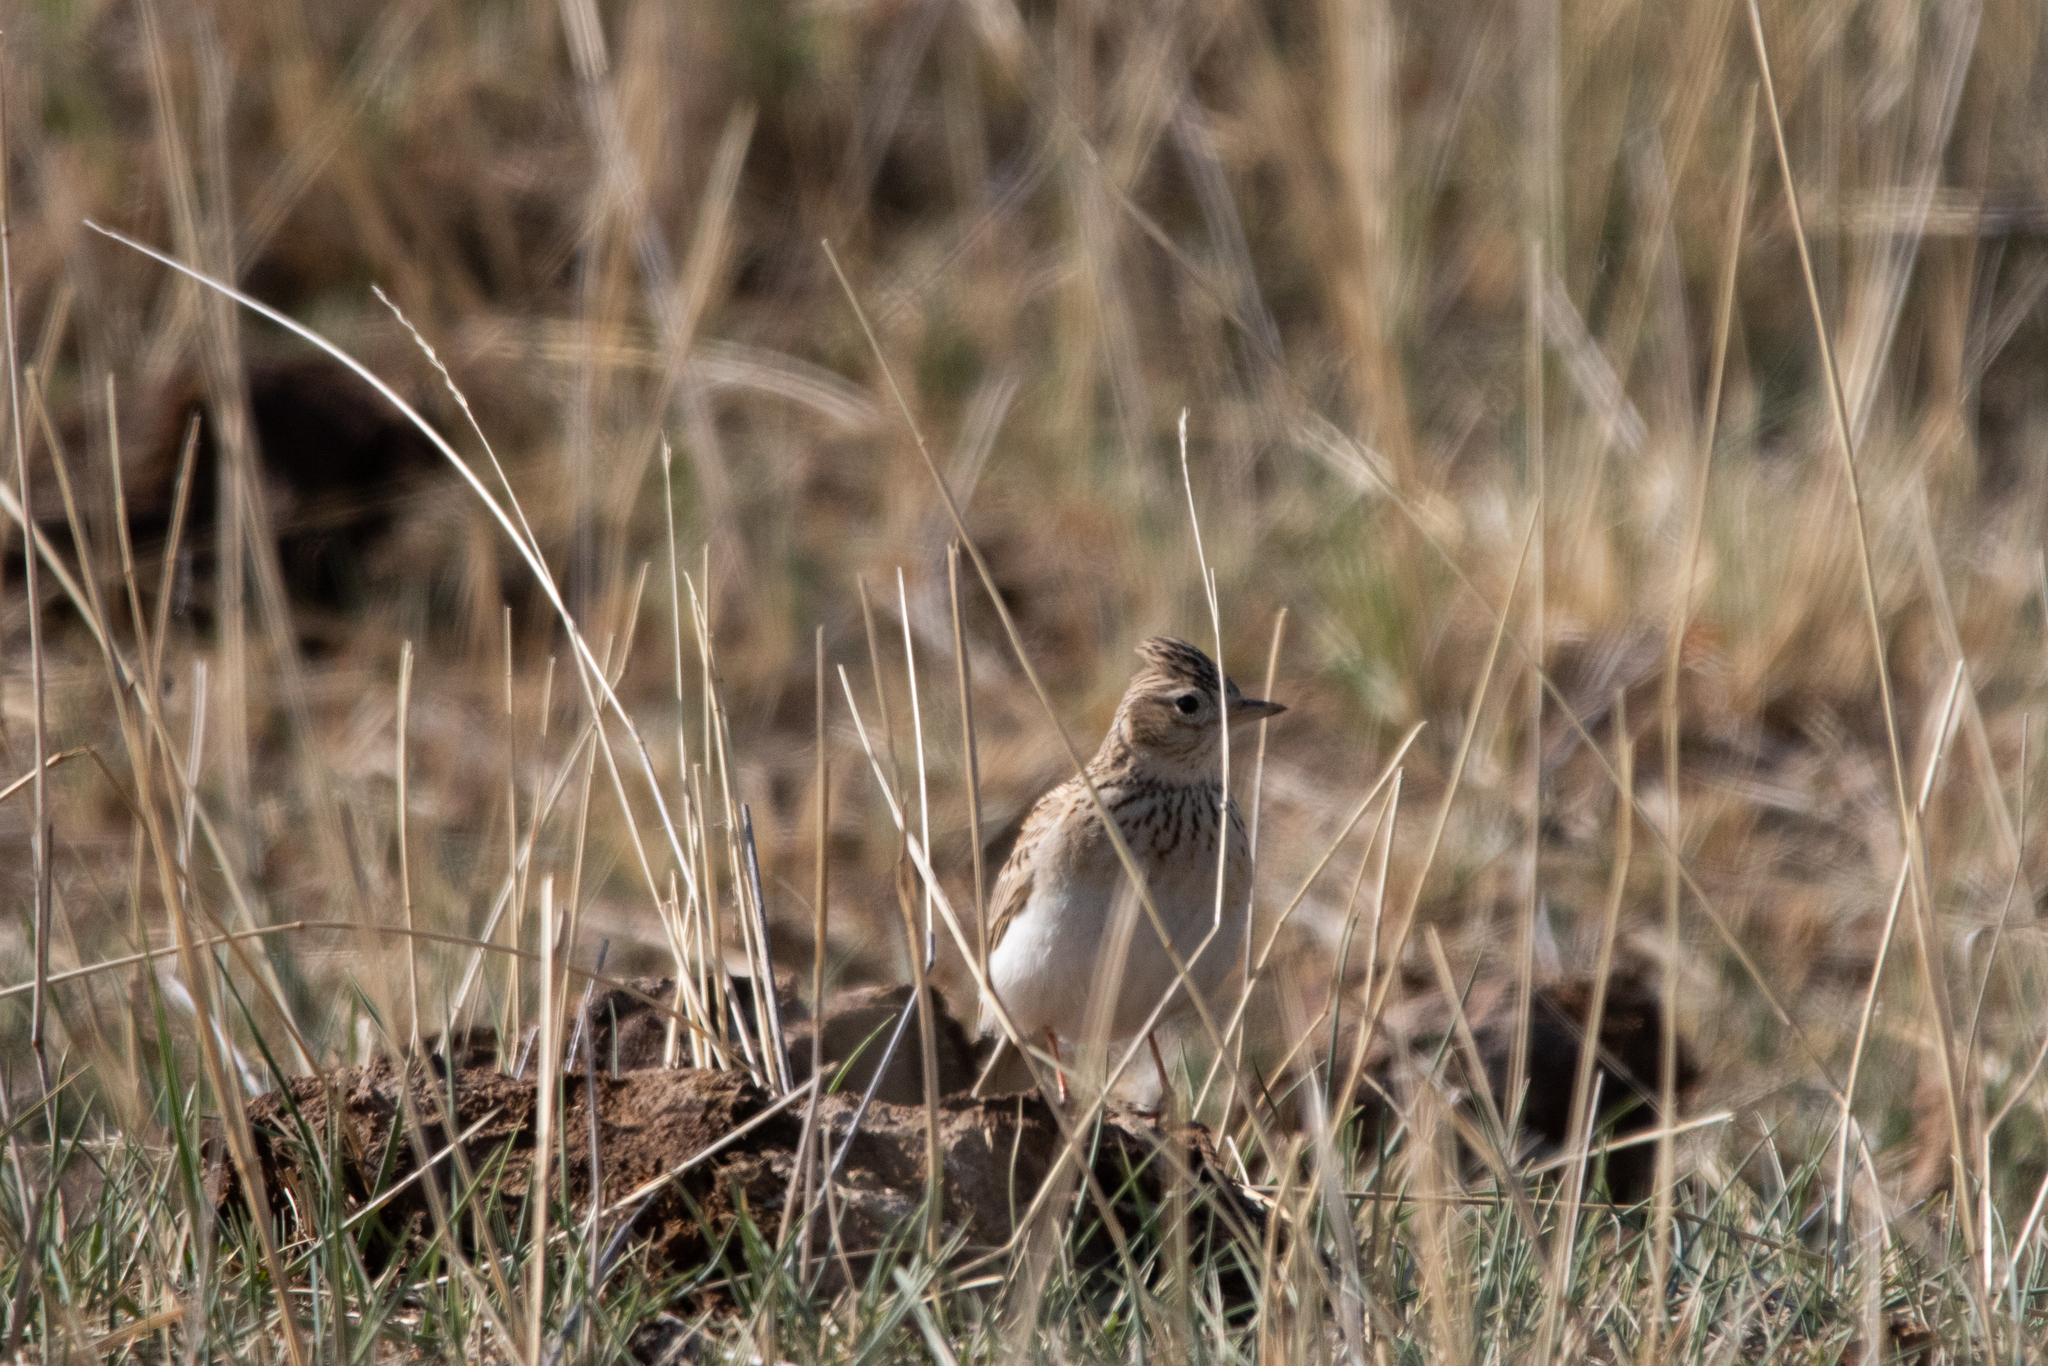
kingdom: Animalia
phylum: Chordata
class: Aves
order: Passeriformes
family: Alaudidae
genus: Alauda
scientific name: Alauda arvensis
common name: Eurasian skylark
